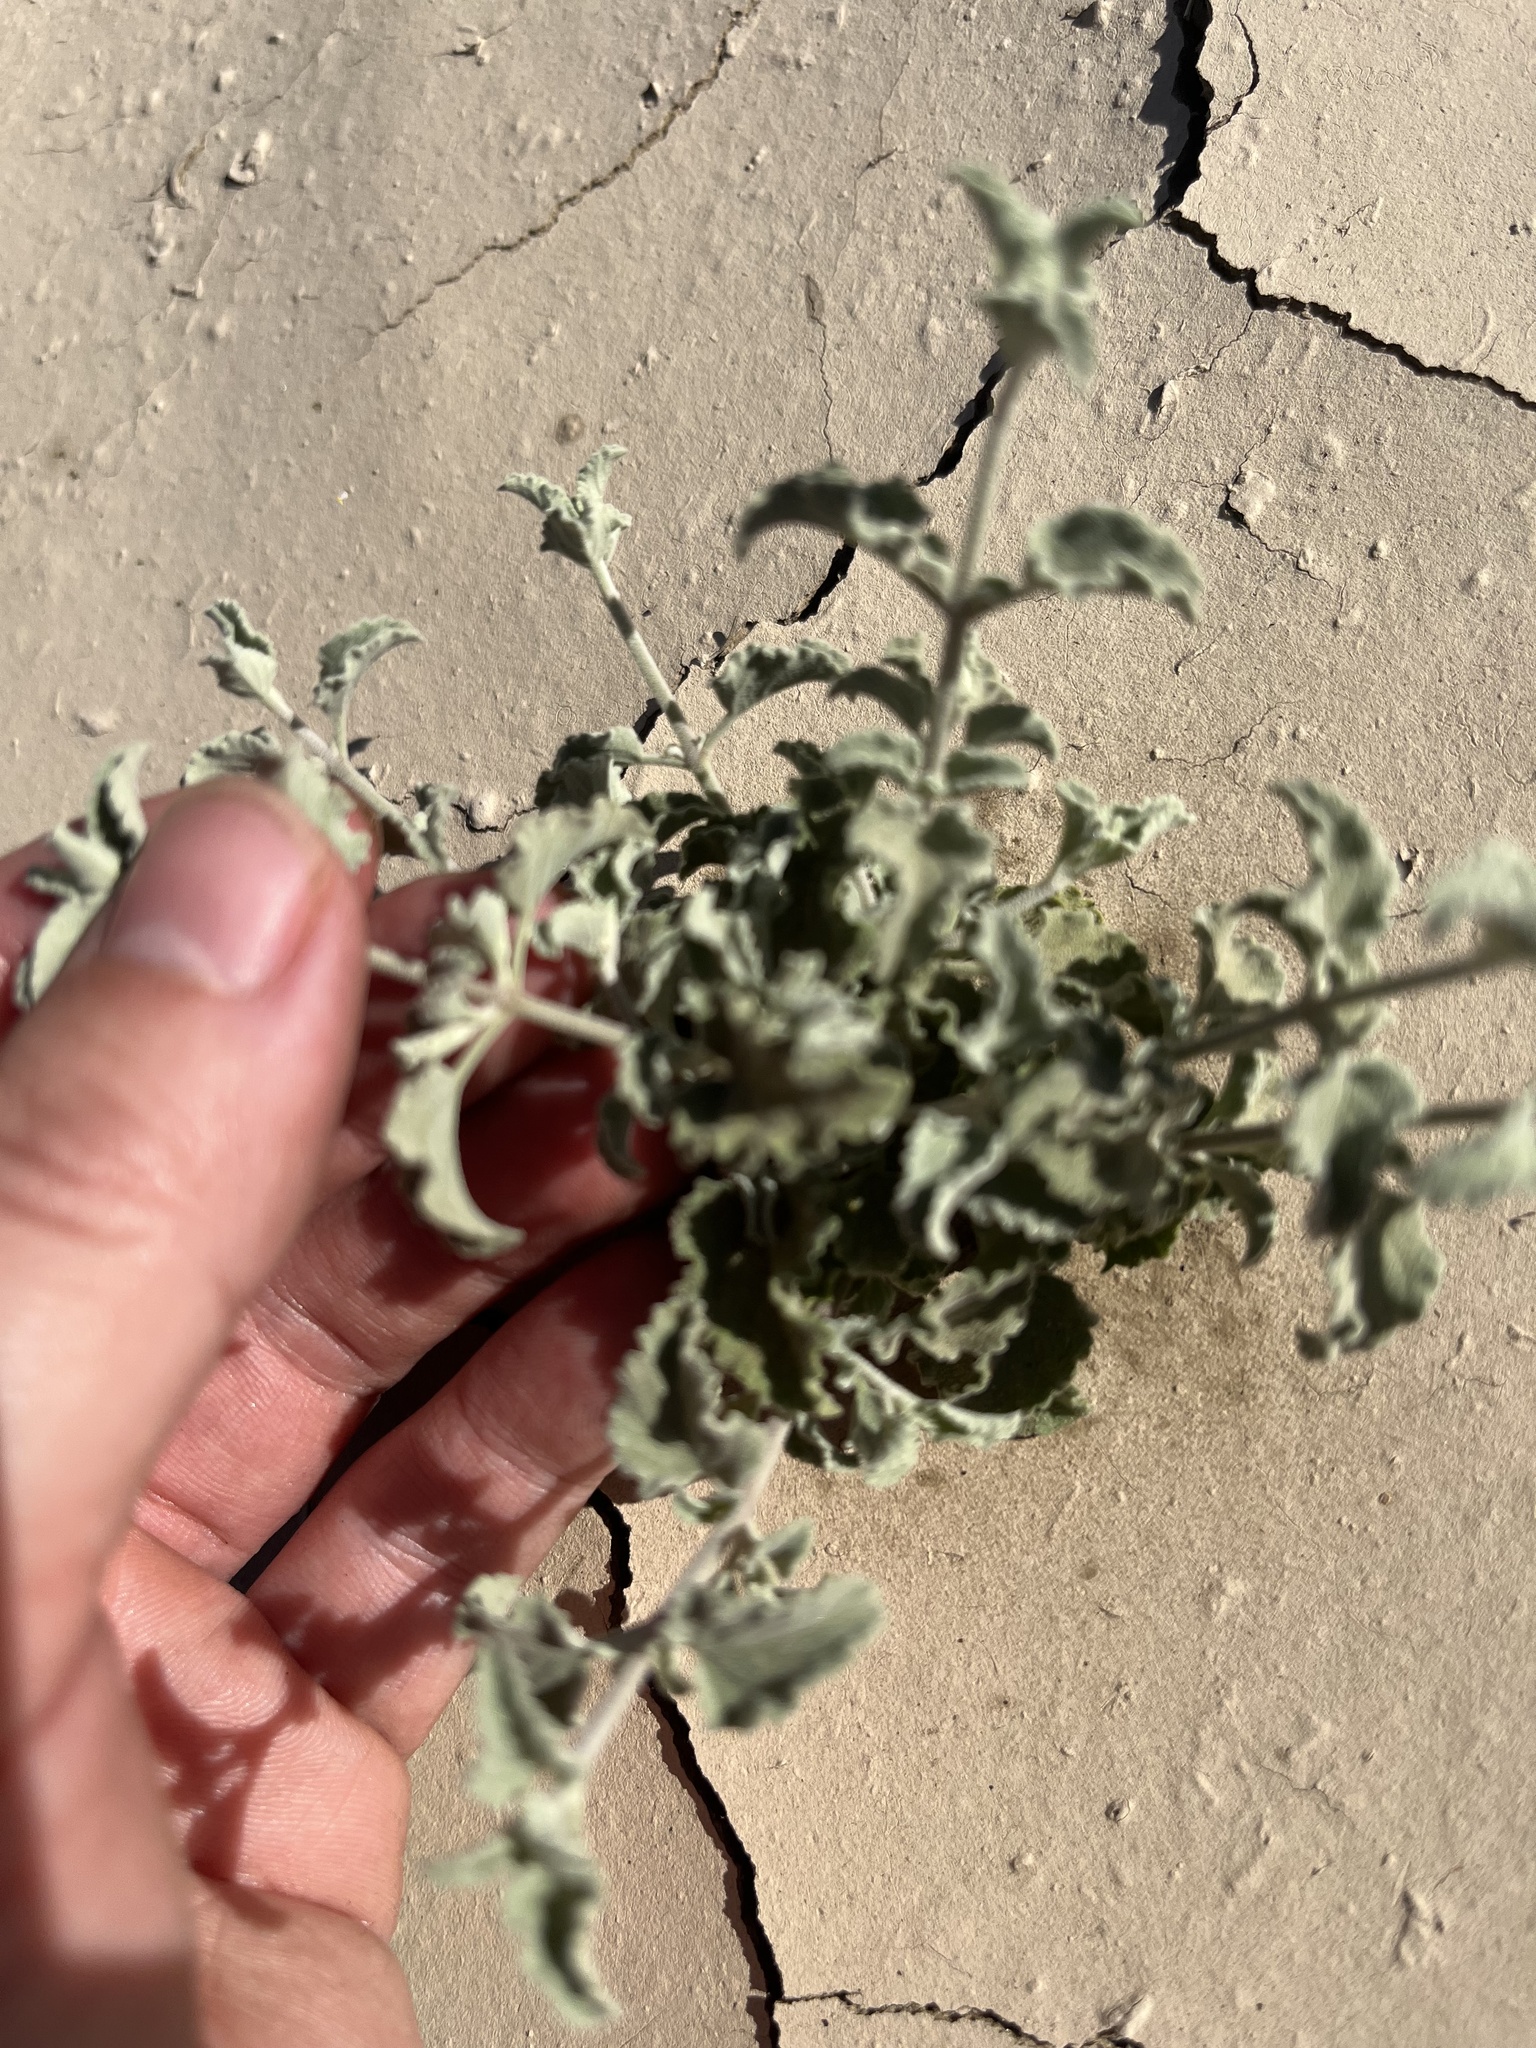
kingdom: Plantae
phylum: Tracheophyta
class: Magnoliopsida
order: Lamiales
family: Lamiaceae
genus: Condea
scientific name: Condea emoryi
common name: Chia
